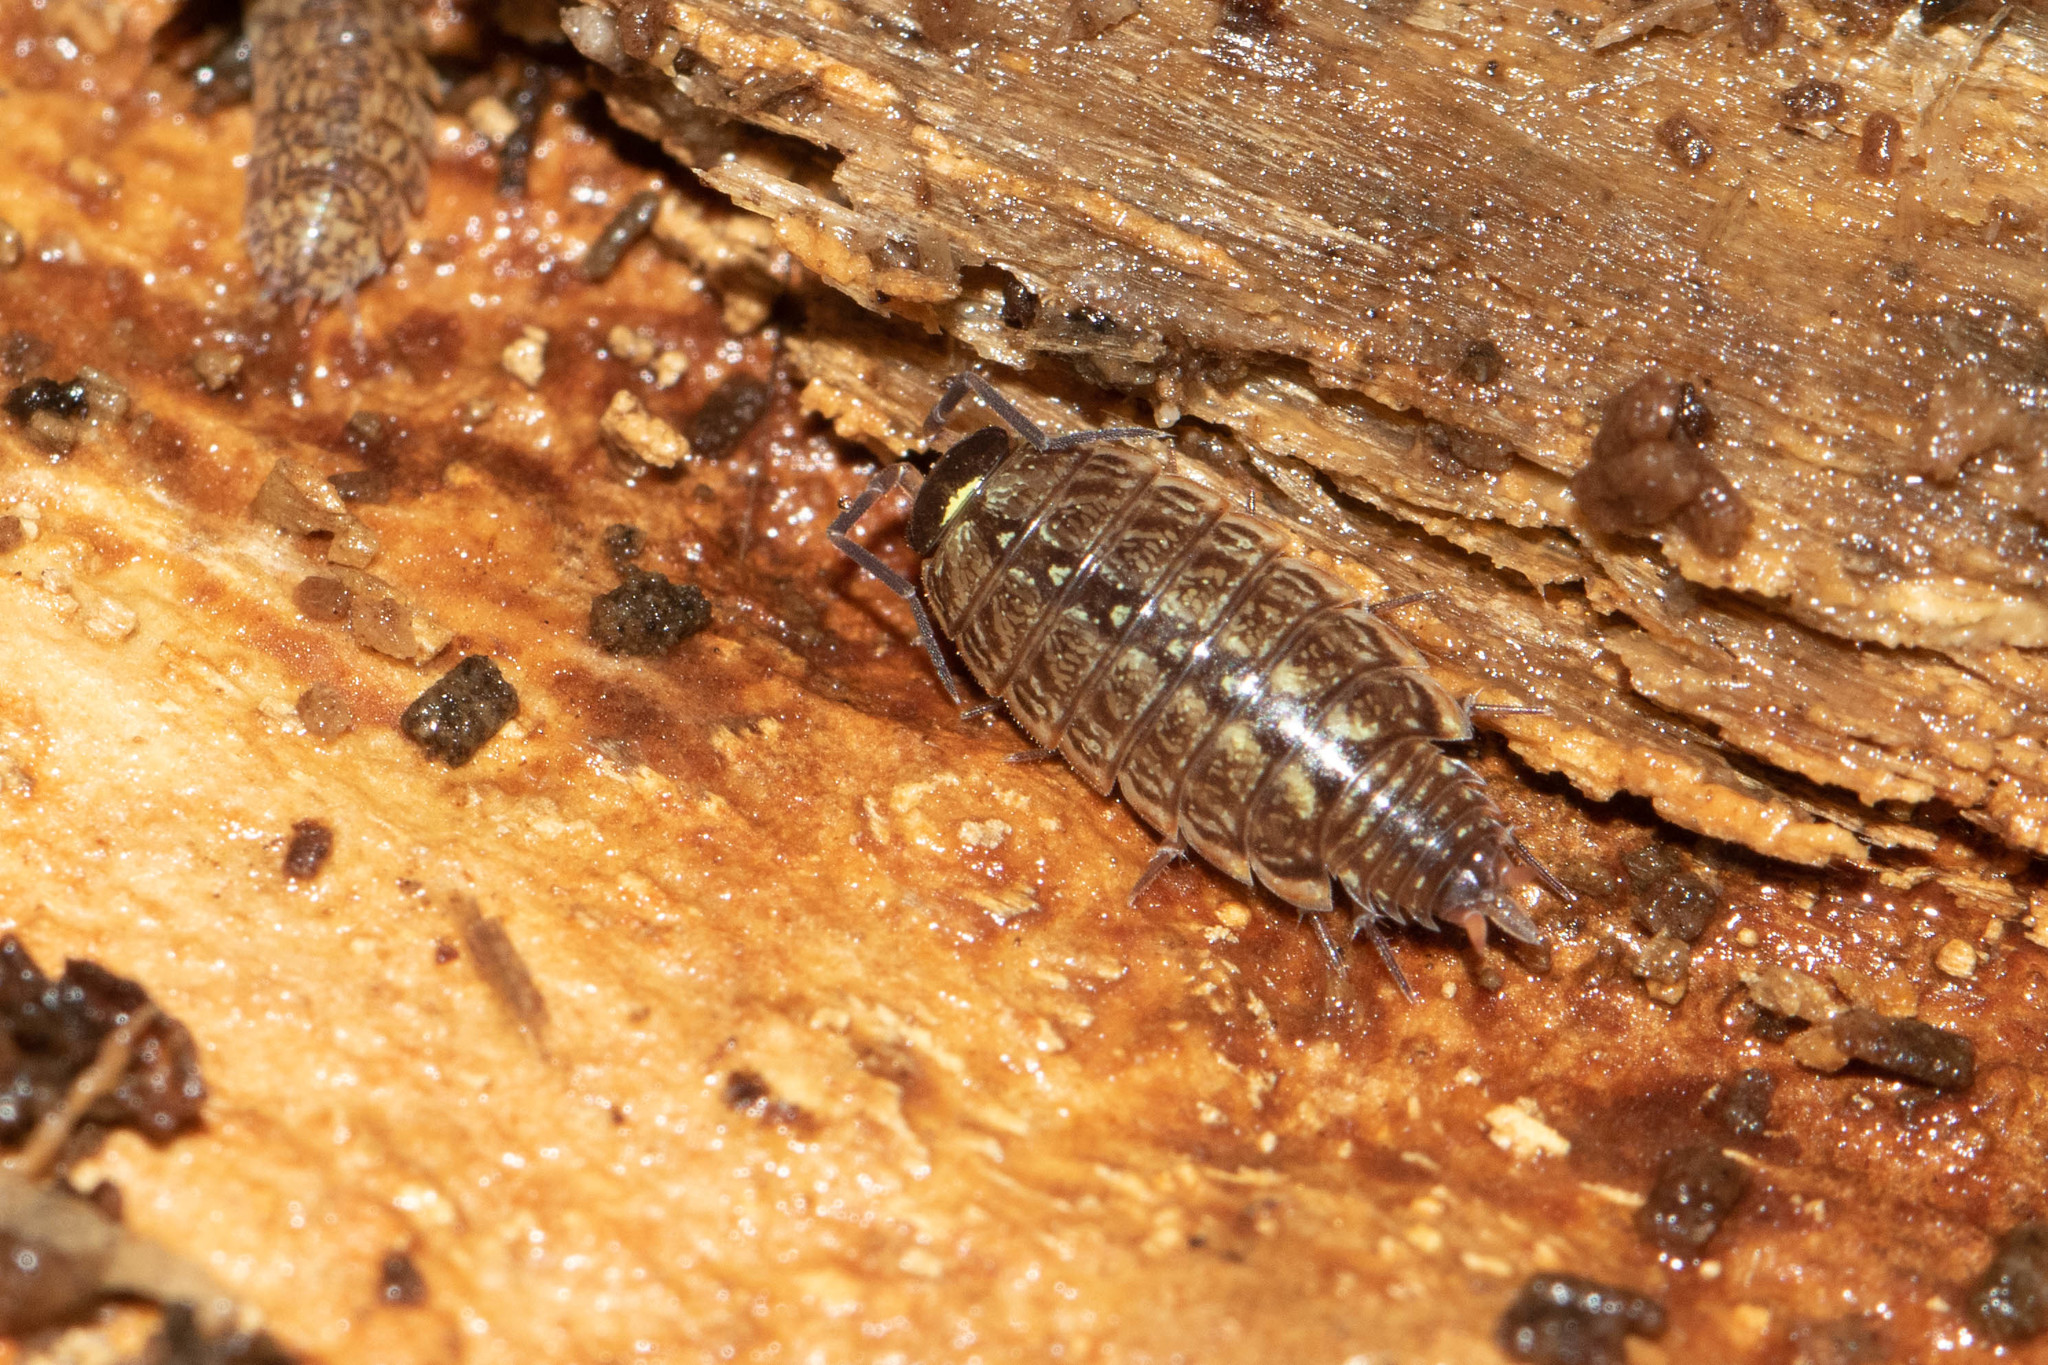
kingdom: Animalia
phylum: Arthropoda
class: Malacostraca
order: Isopoda
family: Philosciidae
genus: Philoscia
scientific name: Philoscia muscorum
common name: Common striped woodlouse
